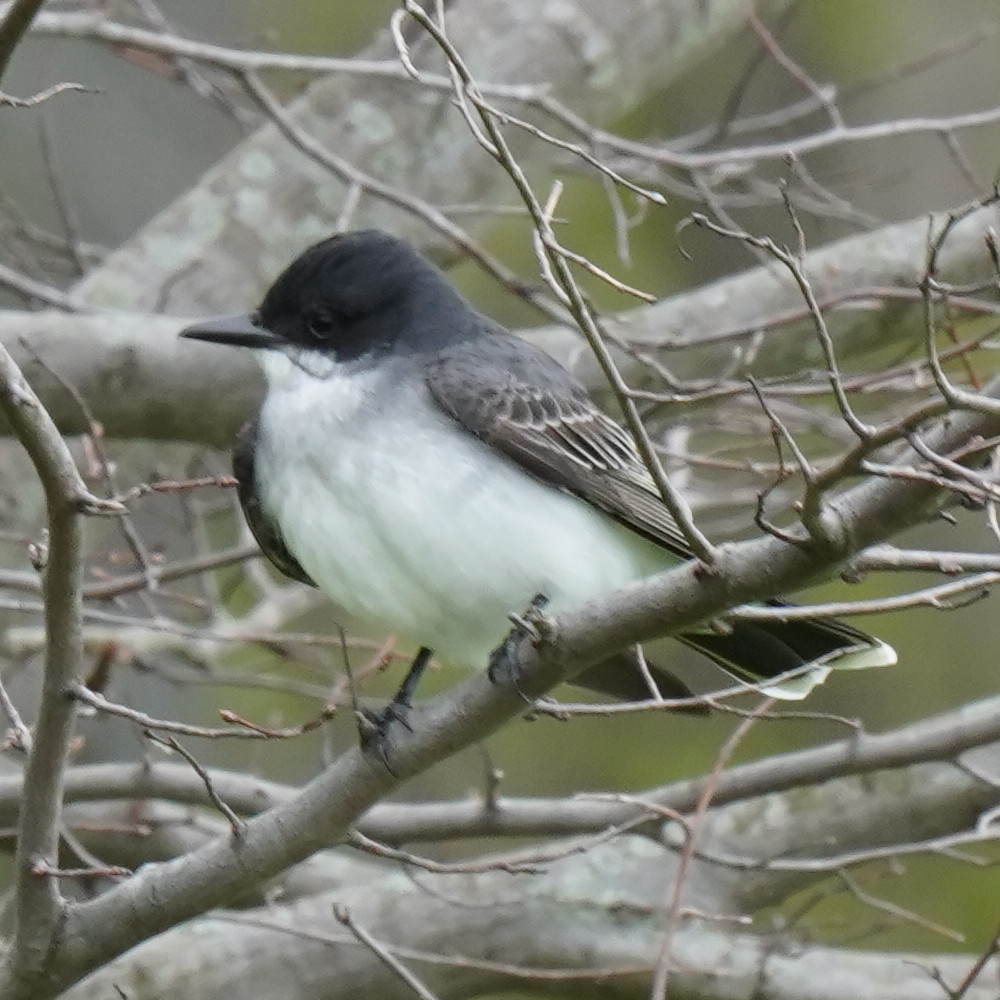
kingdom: Animalia
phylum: Chordata
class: Aves
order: Passeriformes
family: Tyrannidae
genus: Tyrannus
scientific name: Tyrannus tyrannus
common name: Eastern kingbird
